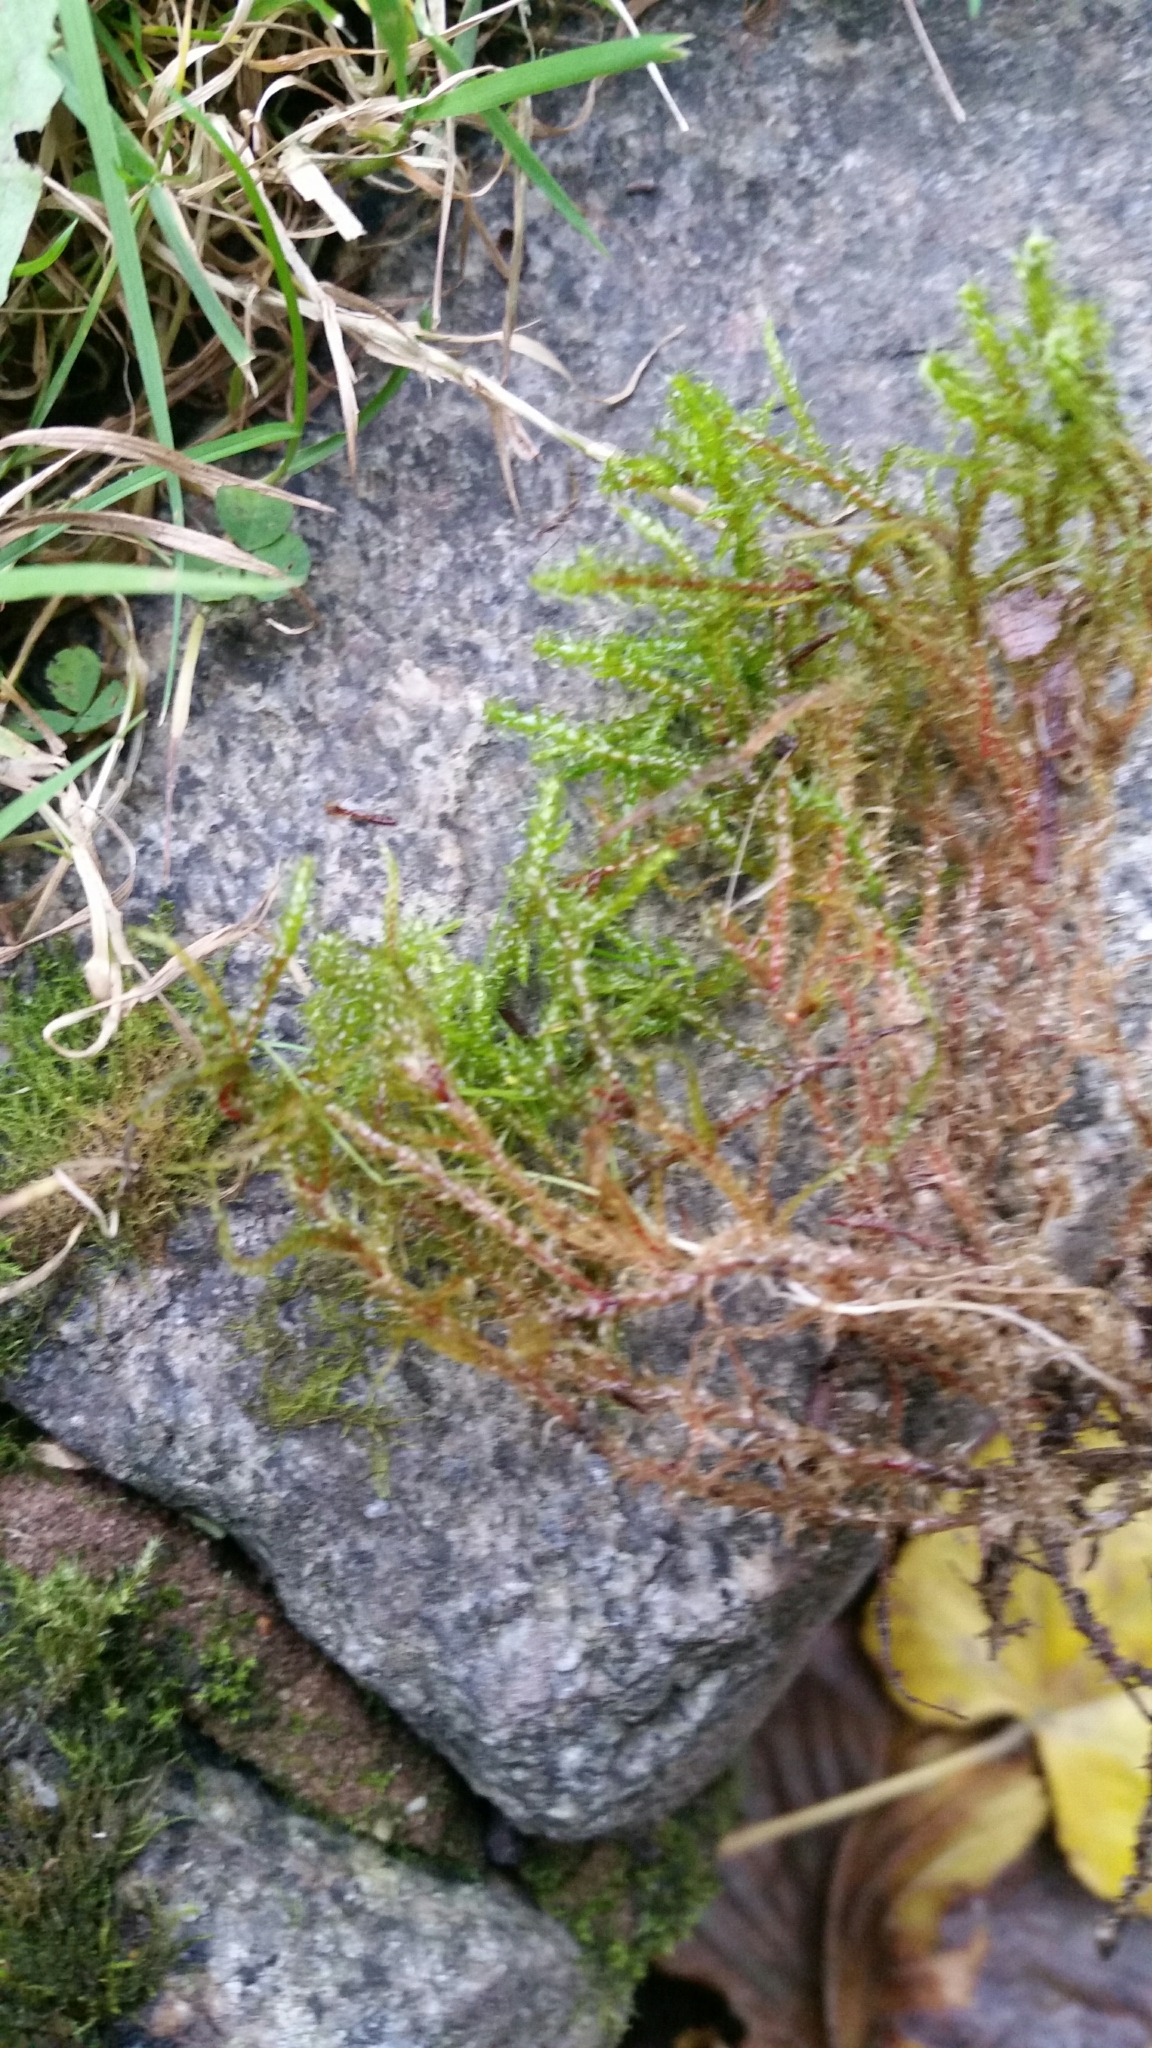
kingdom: Plantae
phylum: Bryophyta
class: Bryopsida
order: Hypnales
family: Hylocomiaceae
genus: Rhytidiadelphus
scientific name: Rhytidiadelphus squarrosus
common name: Springy turf-moss
